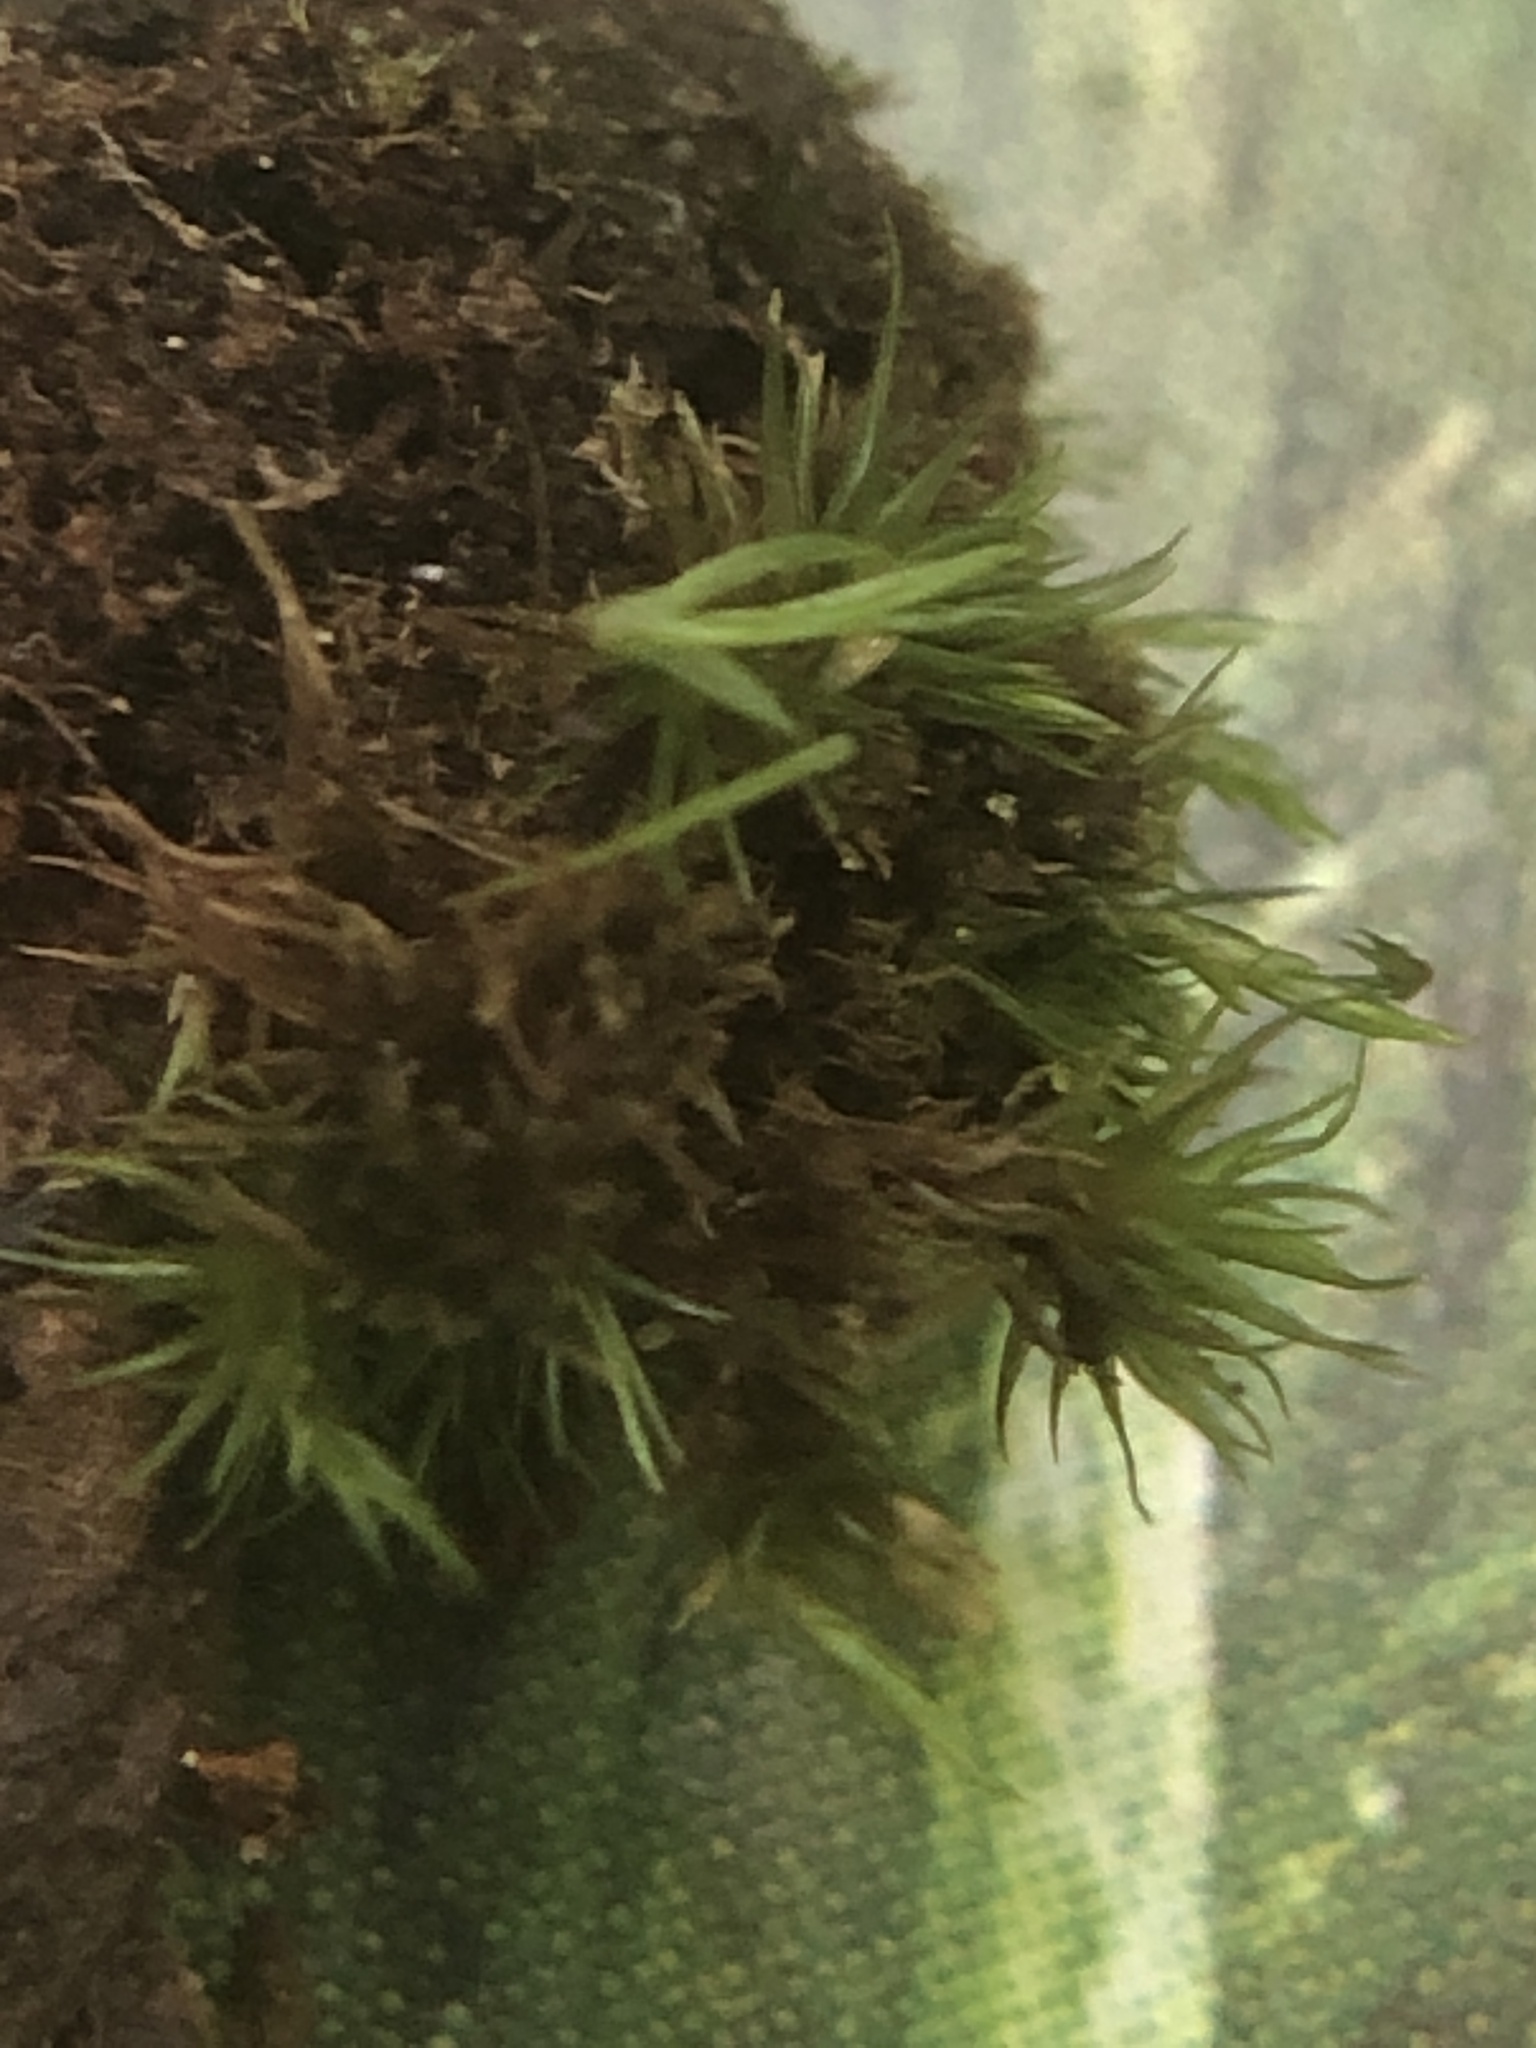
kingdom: Plantae
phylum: Bryophyta
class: Bryopsida
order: Dicranales
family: Leucobryaceae
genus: Campylopus
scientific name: Campylopus flexuosus
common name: Rusty swan-neck moss
